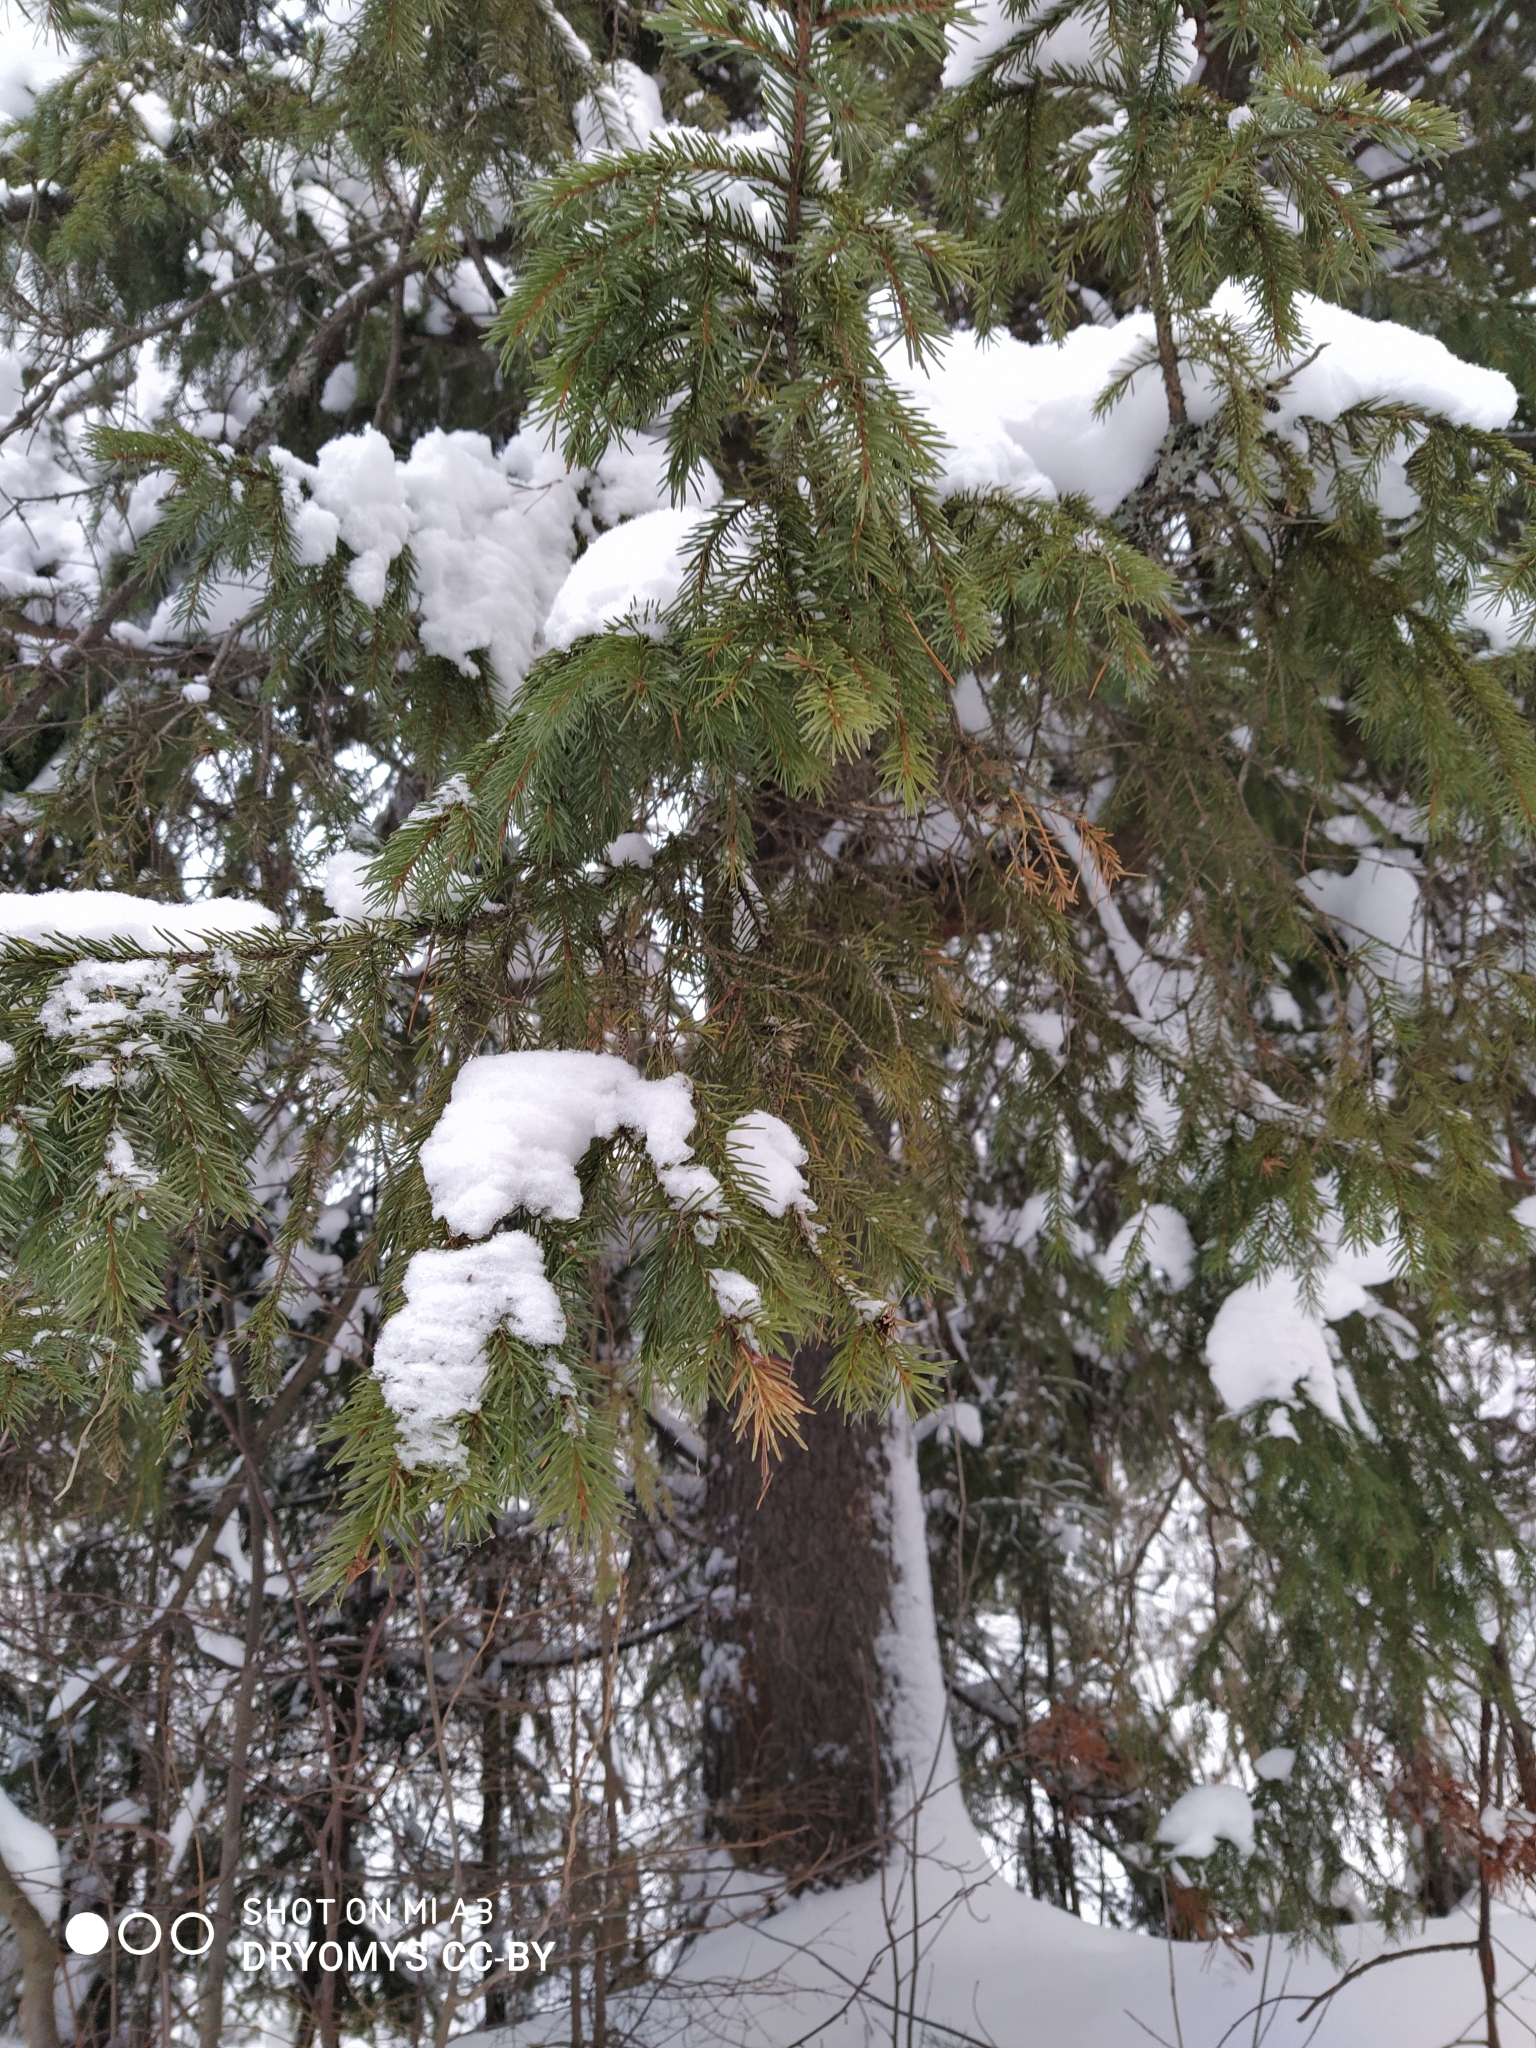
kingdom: Plantae
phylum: Tracheophyta
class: Pinopsida
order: Pinales
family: Pinaceae
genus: Picea
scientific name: Picea abies
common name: Norway spruce
